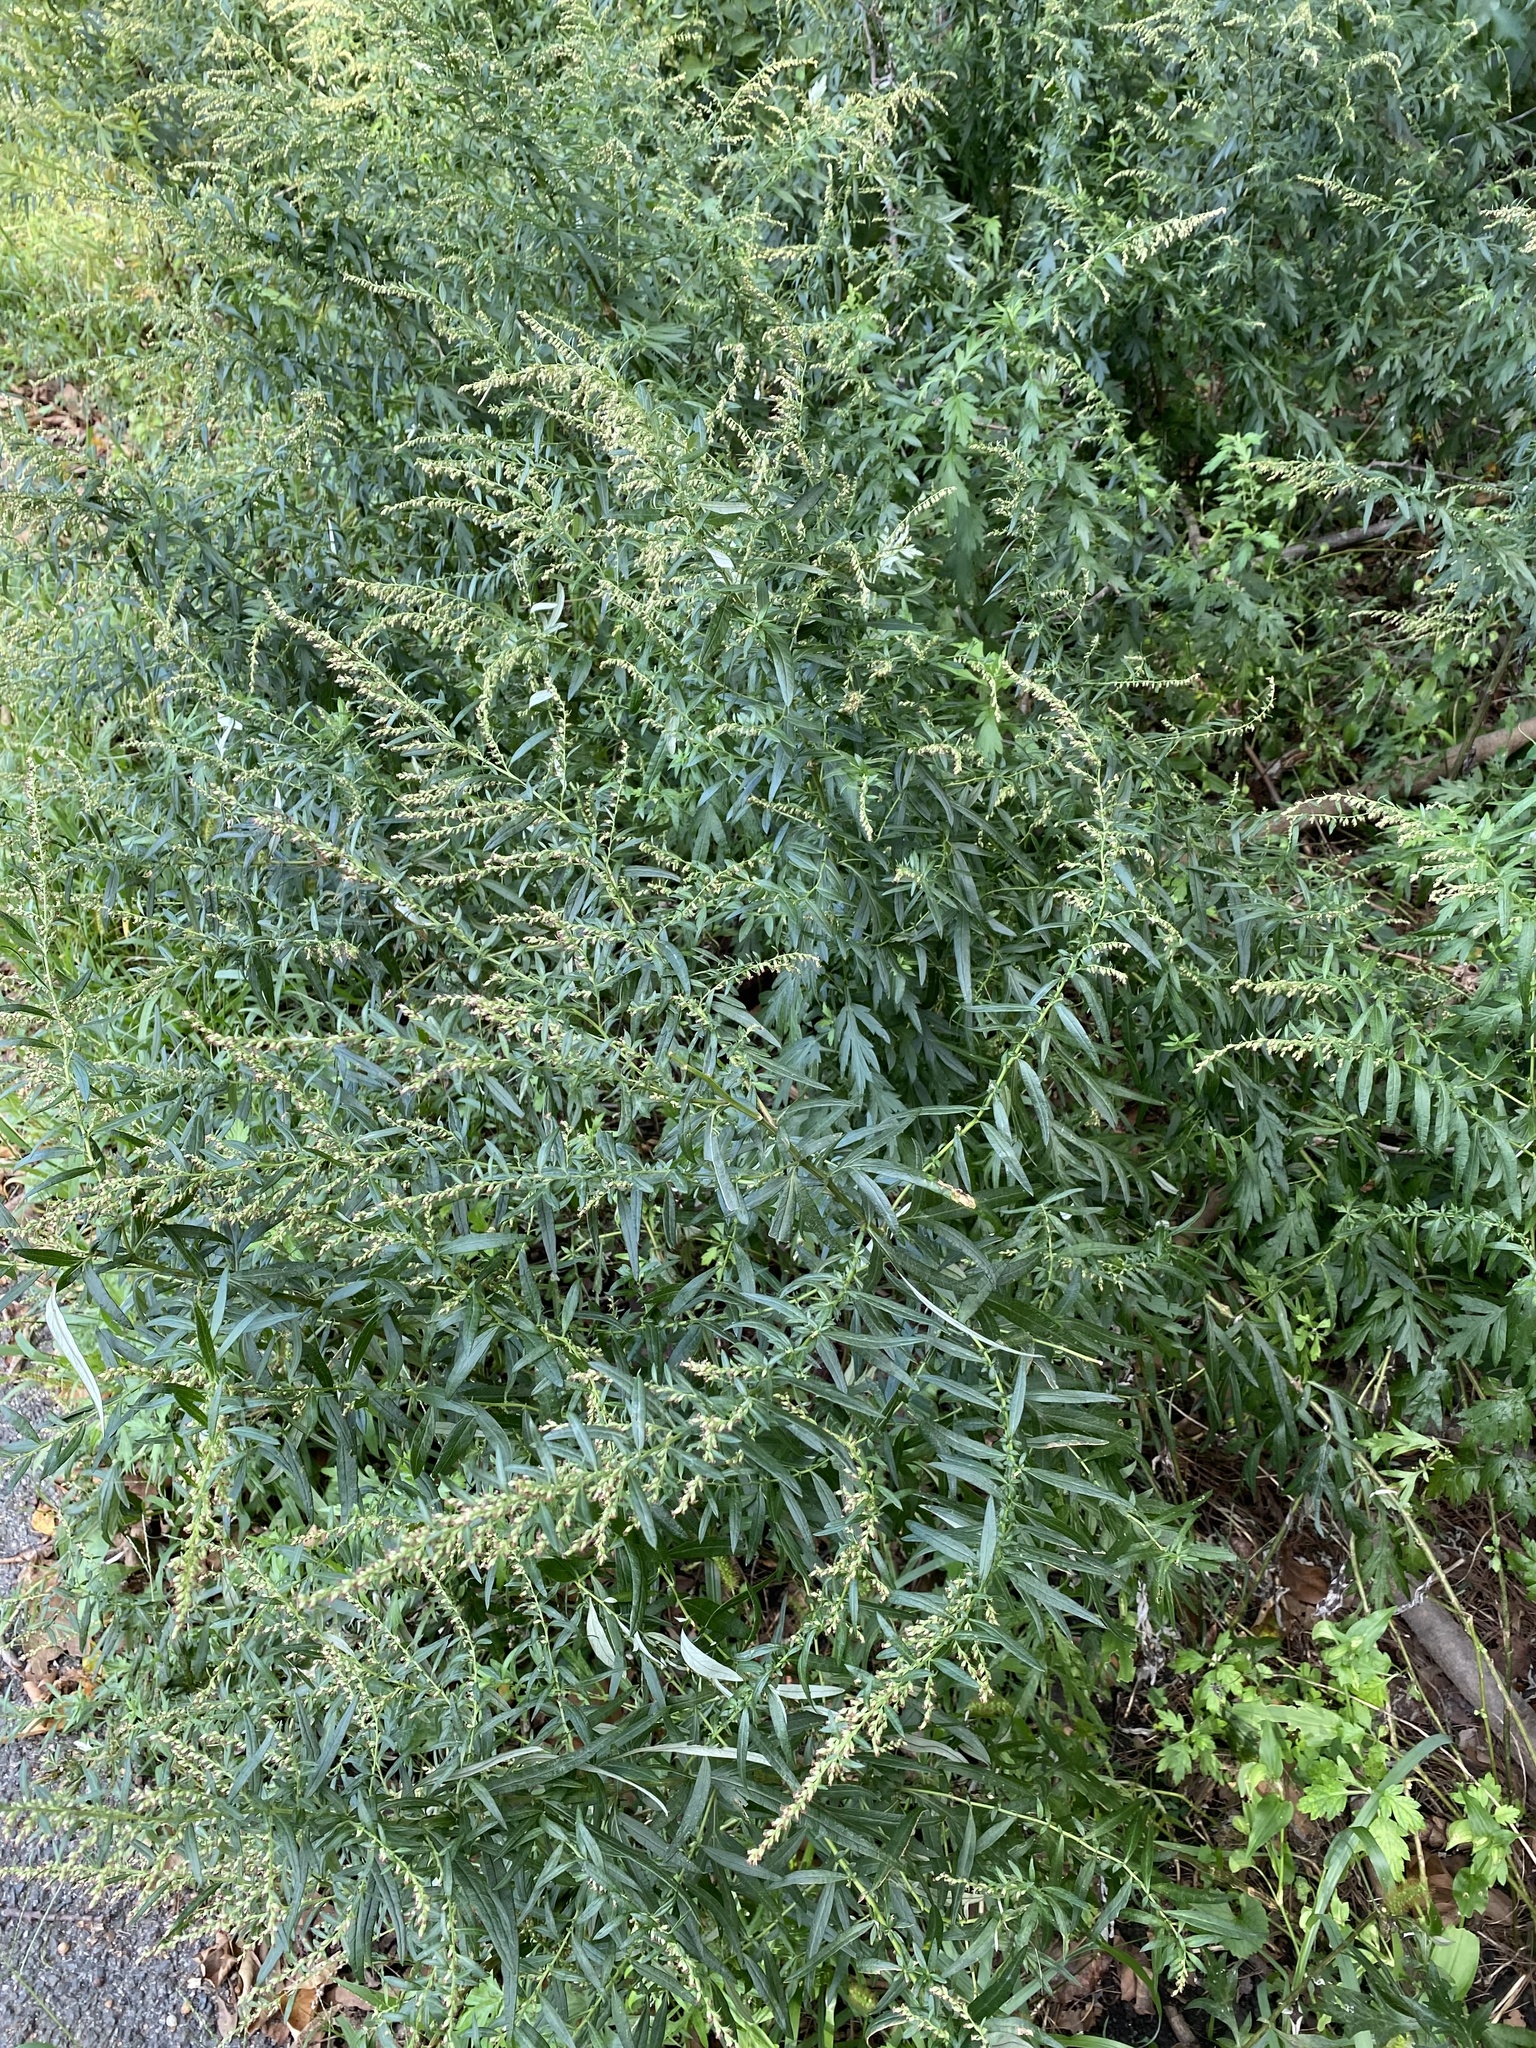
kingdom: Plantae
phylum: Tracheophyta
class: Magnoliopsida
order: Asterales
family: Asteraceae
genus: Artemisia
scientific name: Artemisia vulgaris
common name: Mugwort
